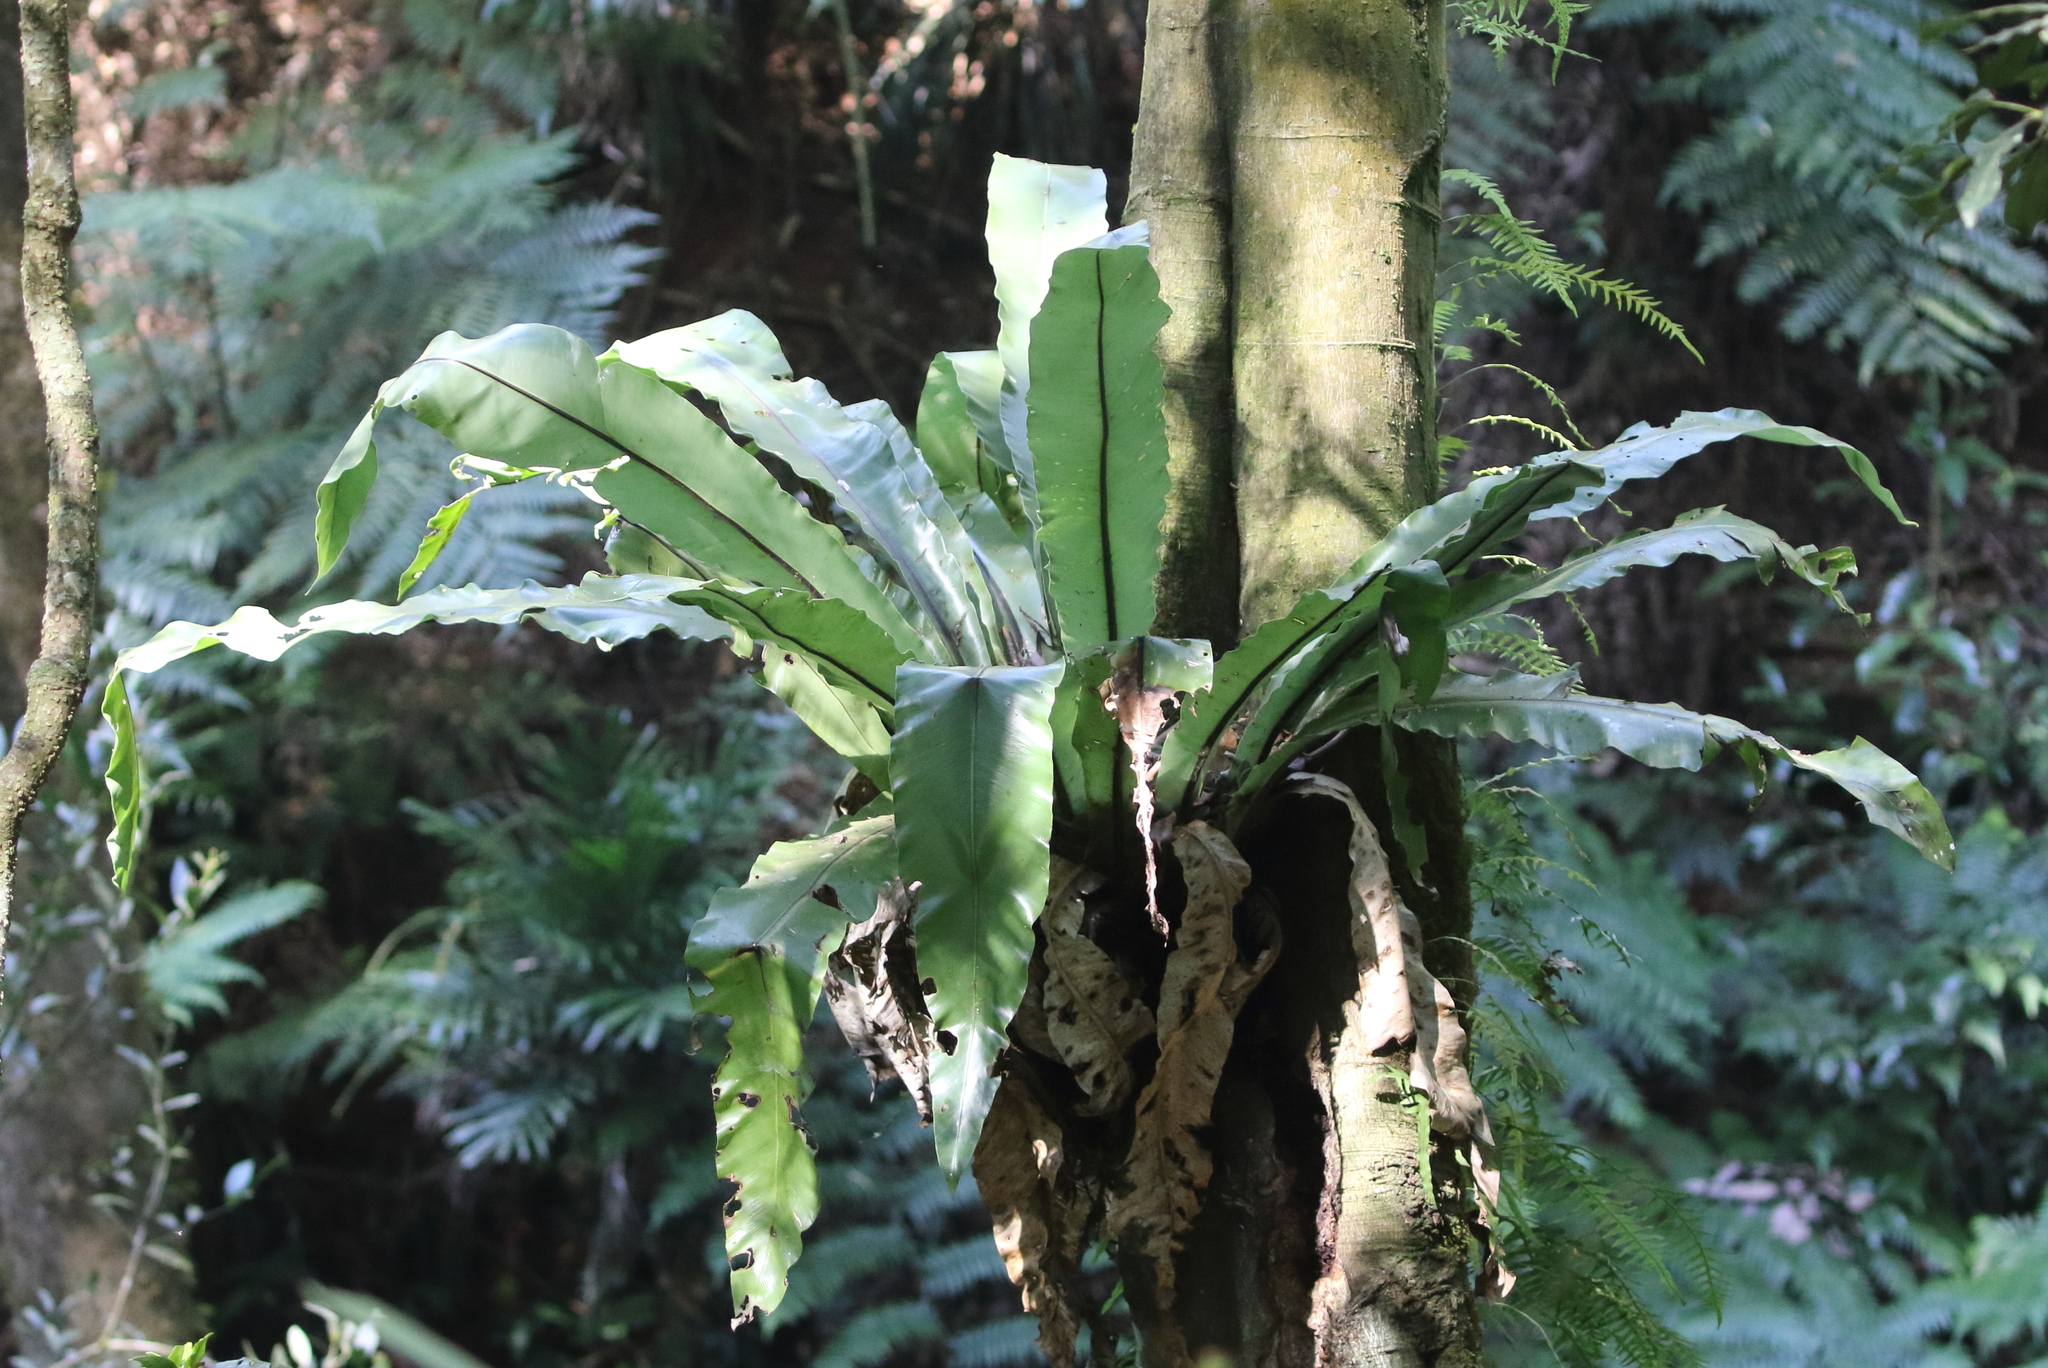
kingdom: Plantae
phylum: Tracheophyta
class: Polypodiopsida
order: Polypodiales
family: Aspleniaceae
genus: Asplenium
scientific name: Asplenium australasicum
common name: Bird's-nest fern
